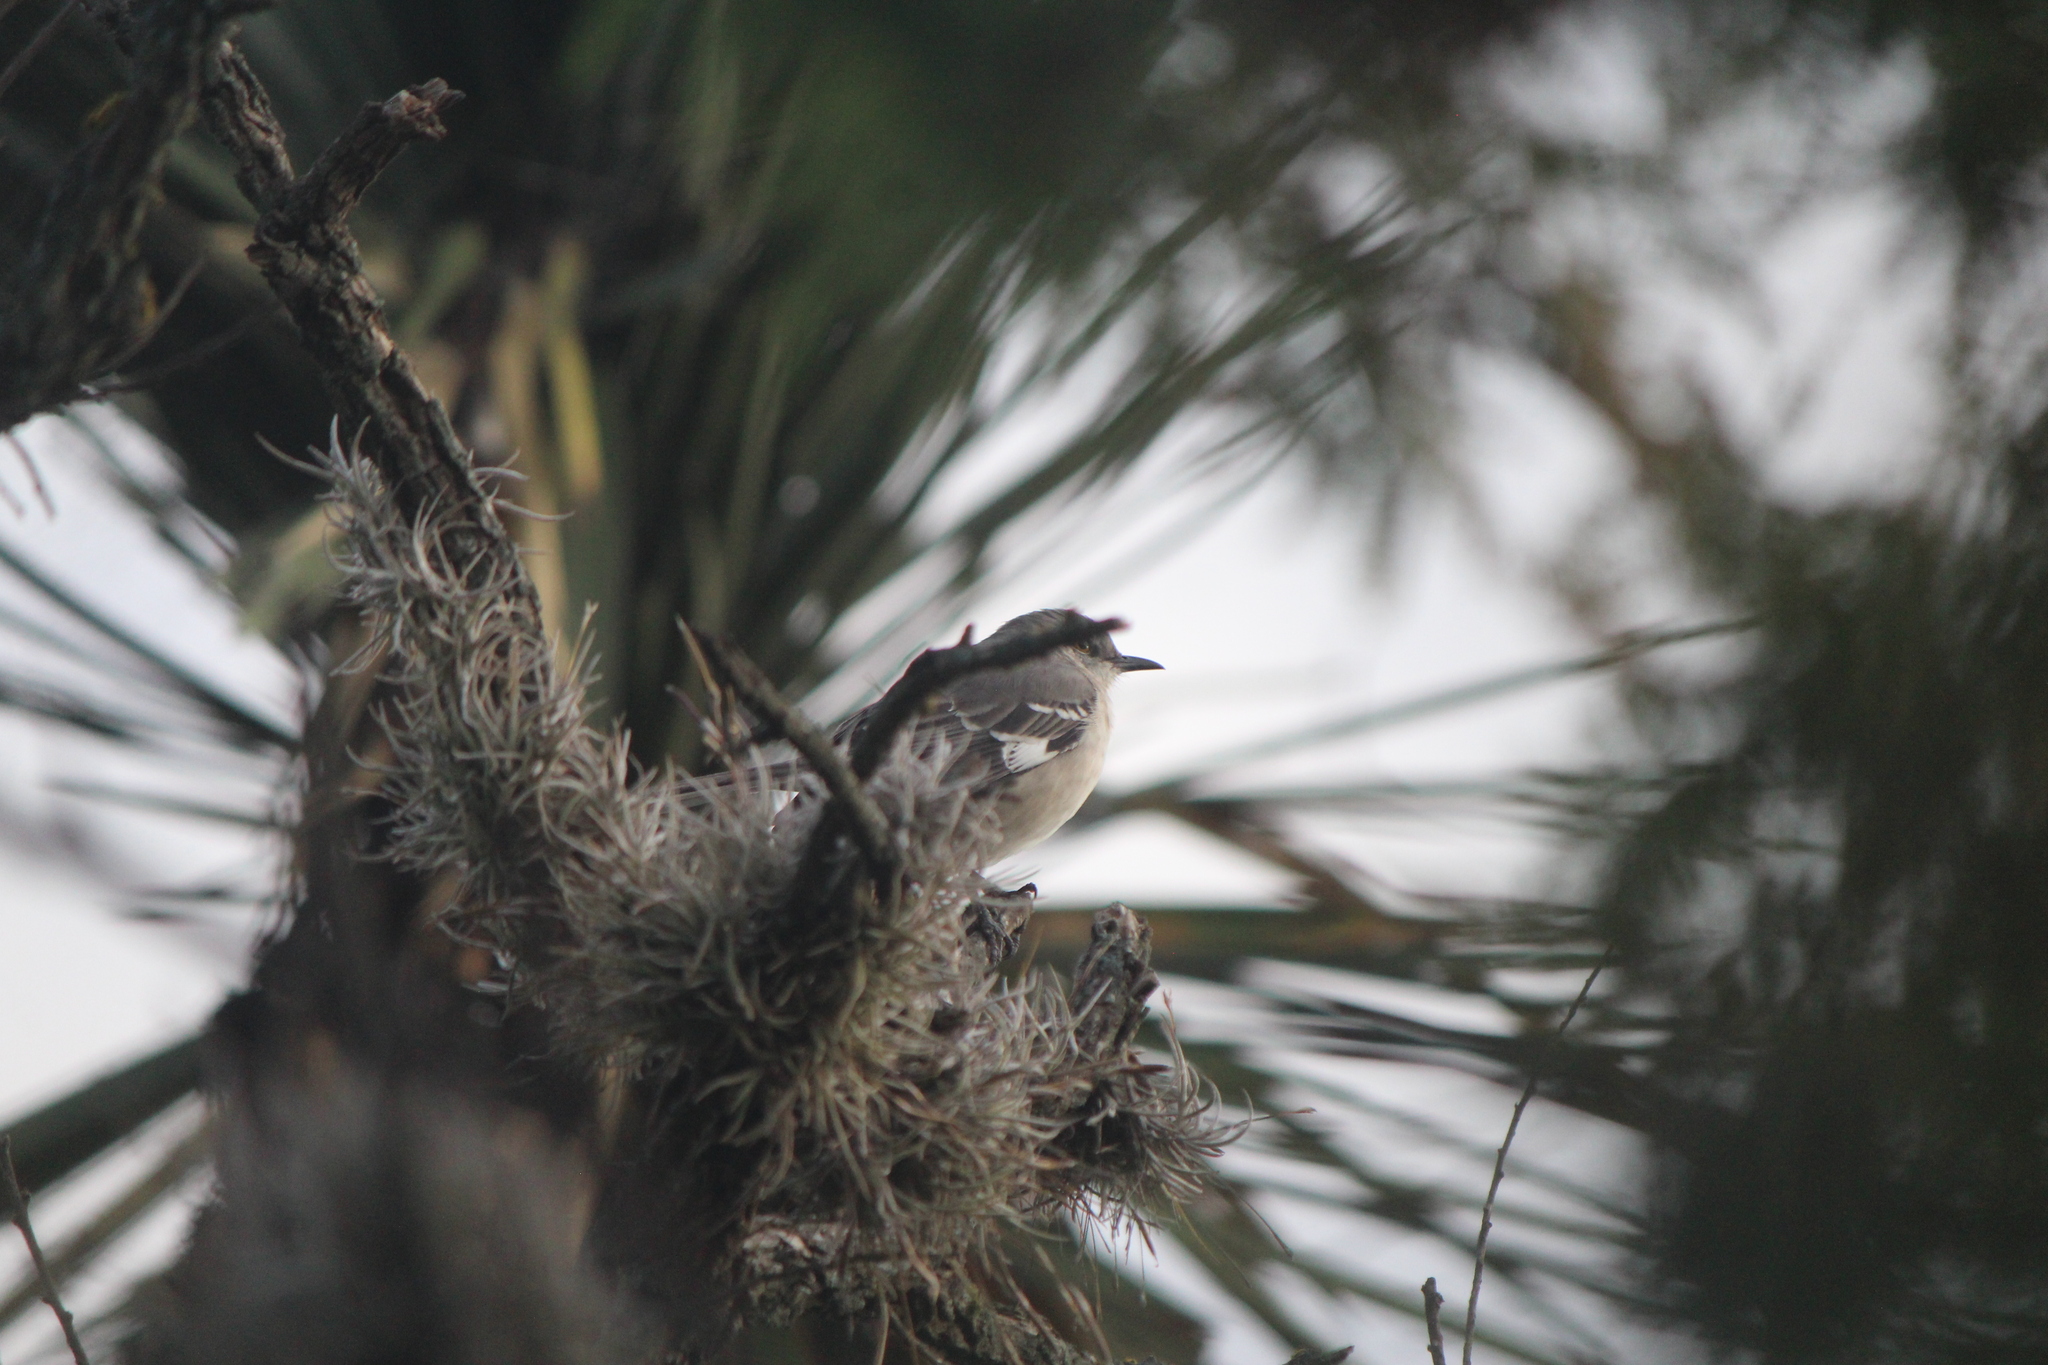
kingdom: Animalia
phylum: Chordata
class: Aves
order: Passeriformes
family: Mimidae
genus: Mimus
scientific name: Mimus polyglottos
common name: Northern mockingbird
